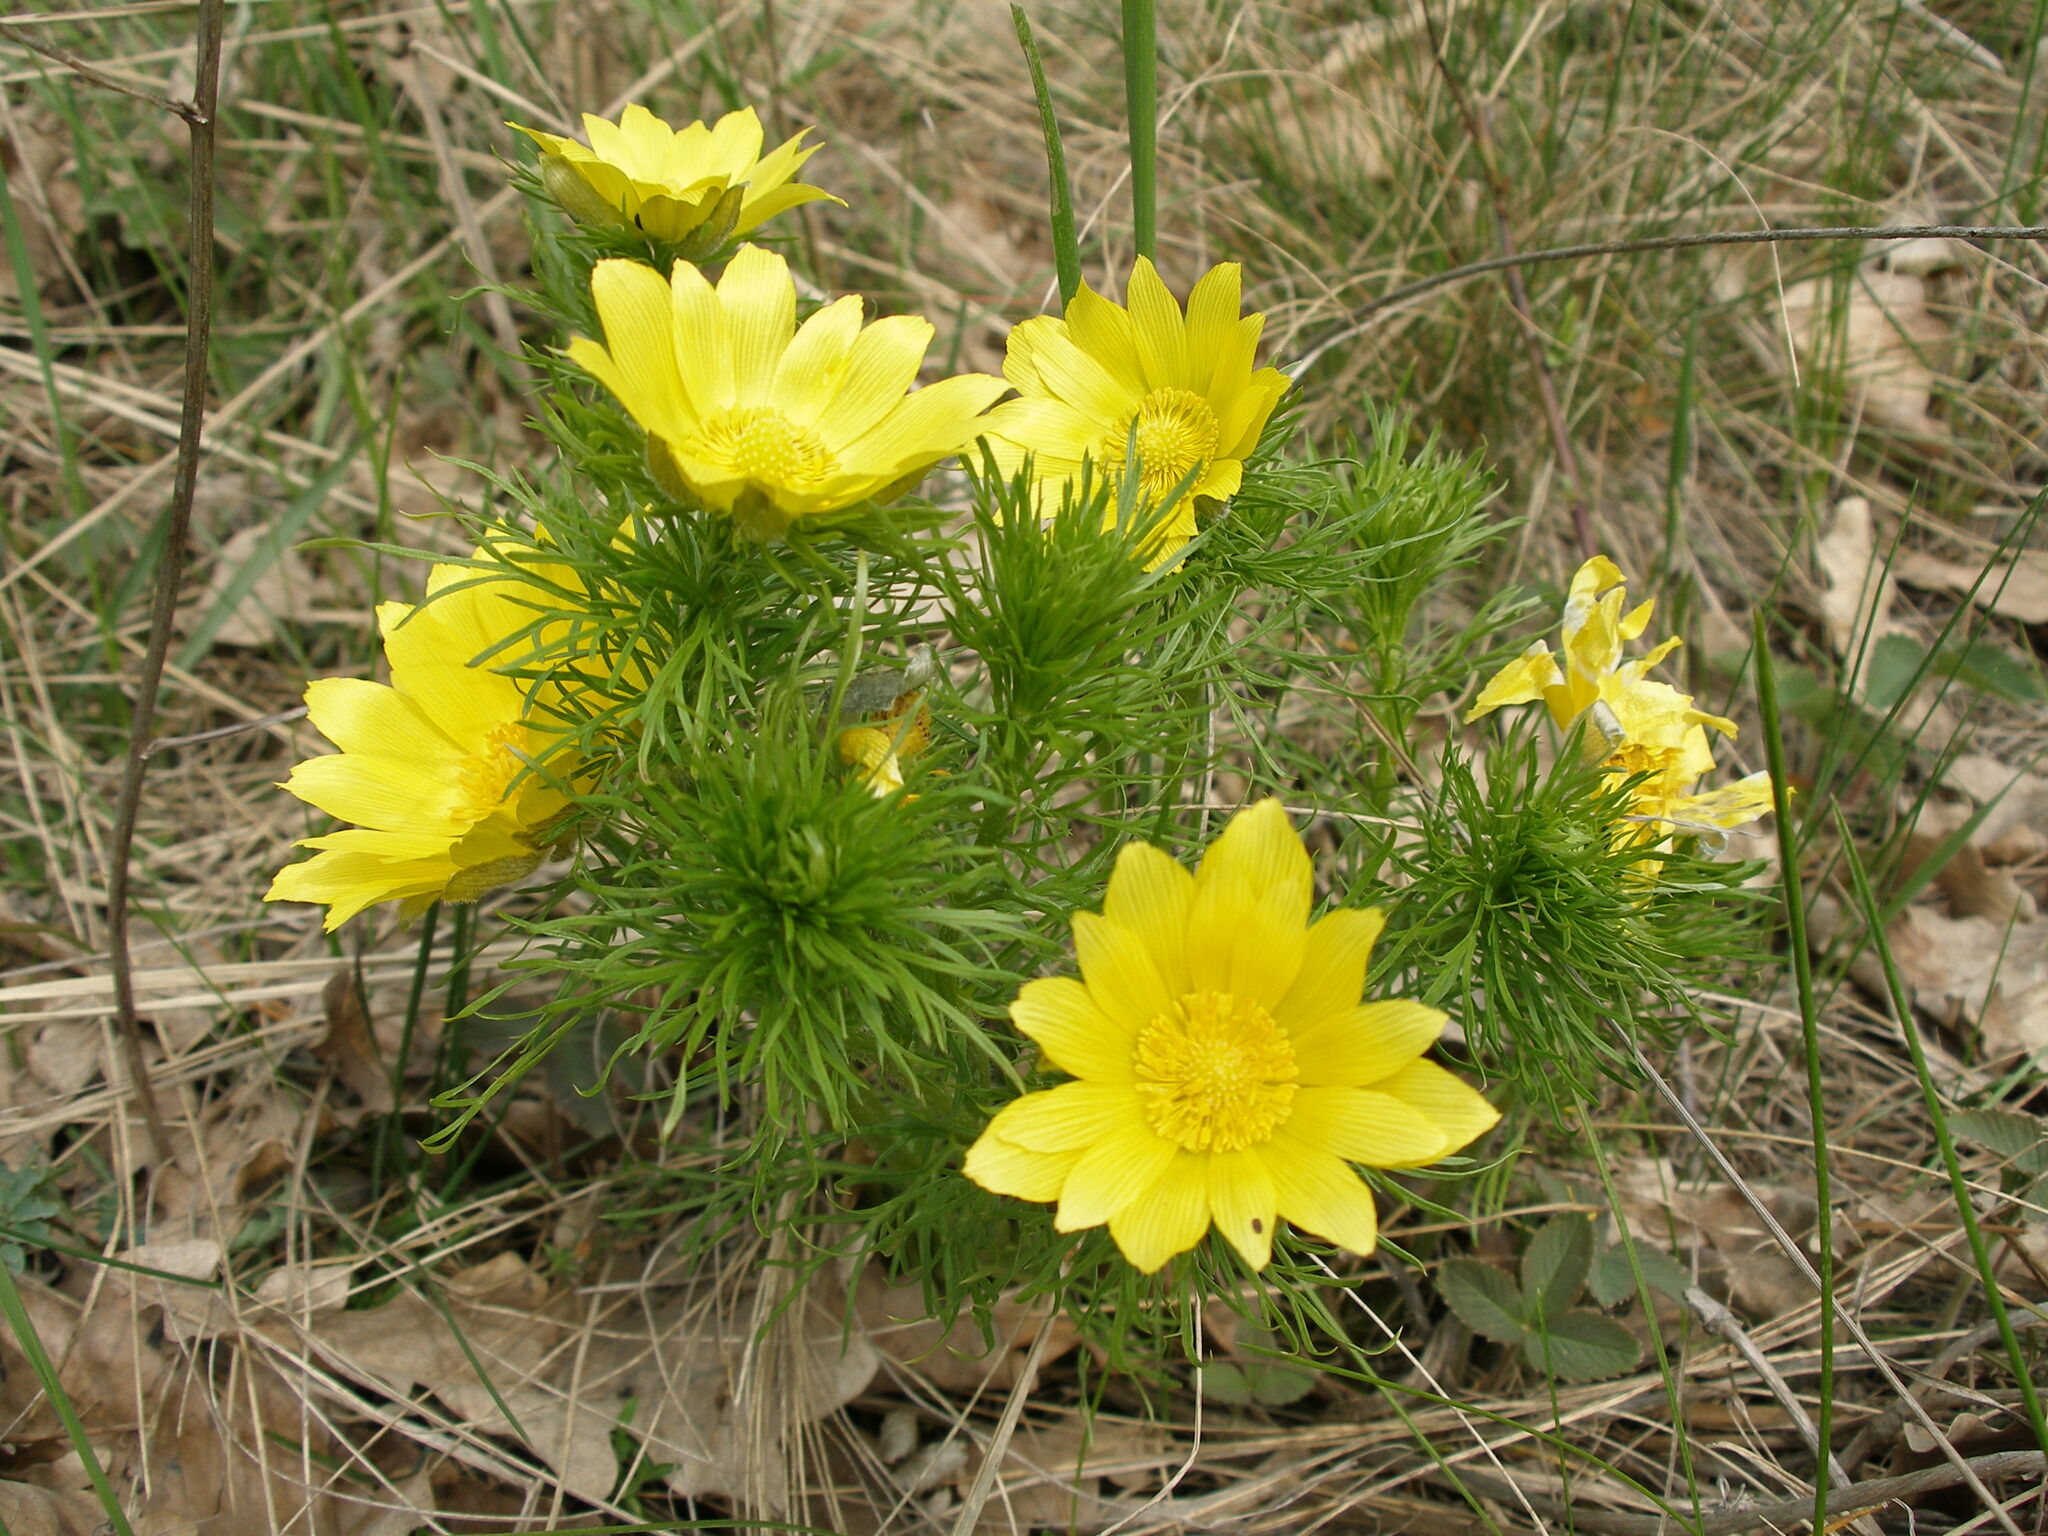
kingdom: Plantae
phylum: Tracheophyta
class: Magnoliopsida
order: Ranunculales
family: Ranunculaceae
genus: Adonis
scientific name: Adonis vernalis
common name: Yellow pheasants-eye
